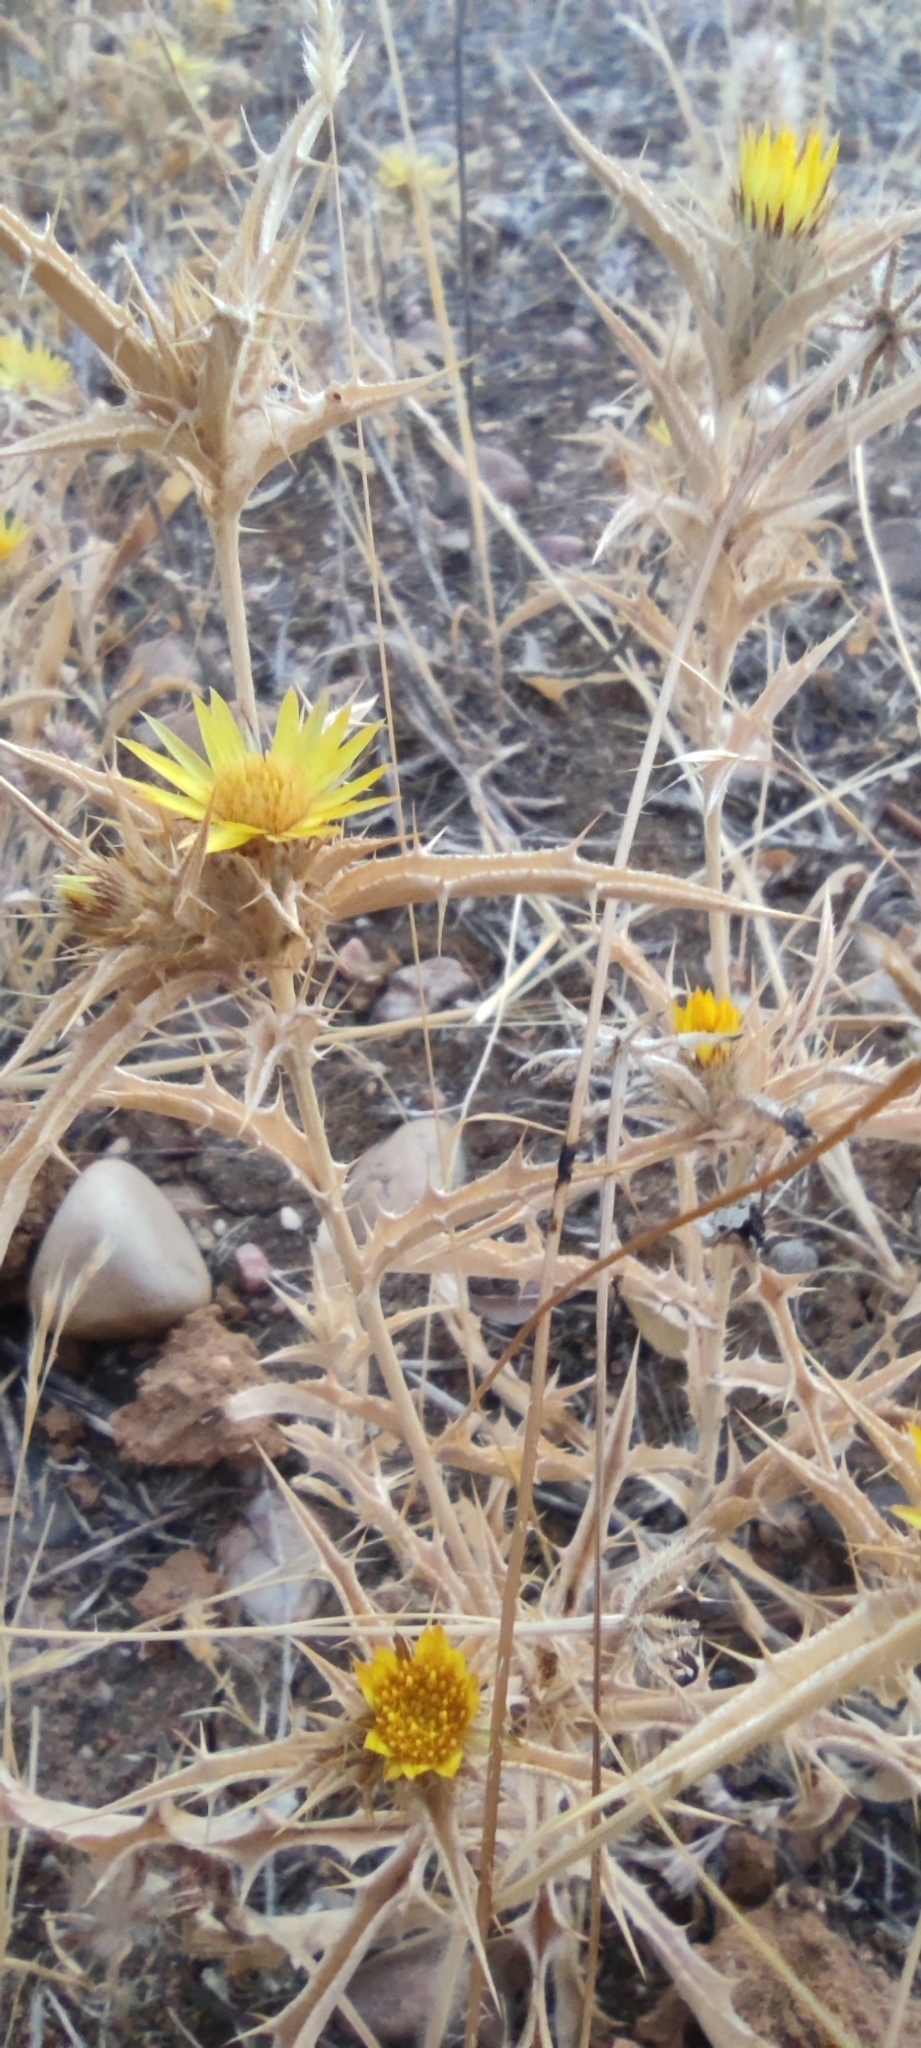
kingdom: Plantae
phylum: Tracheophyta
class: Magnoliopsida
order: Asterales
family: Asteraceae
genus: Carlina
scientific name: Carlina racemosa
